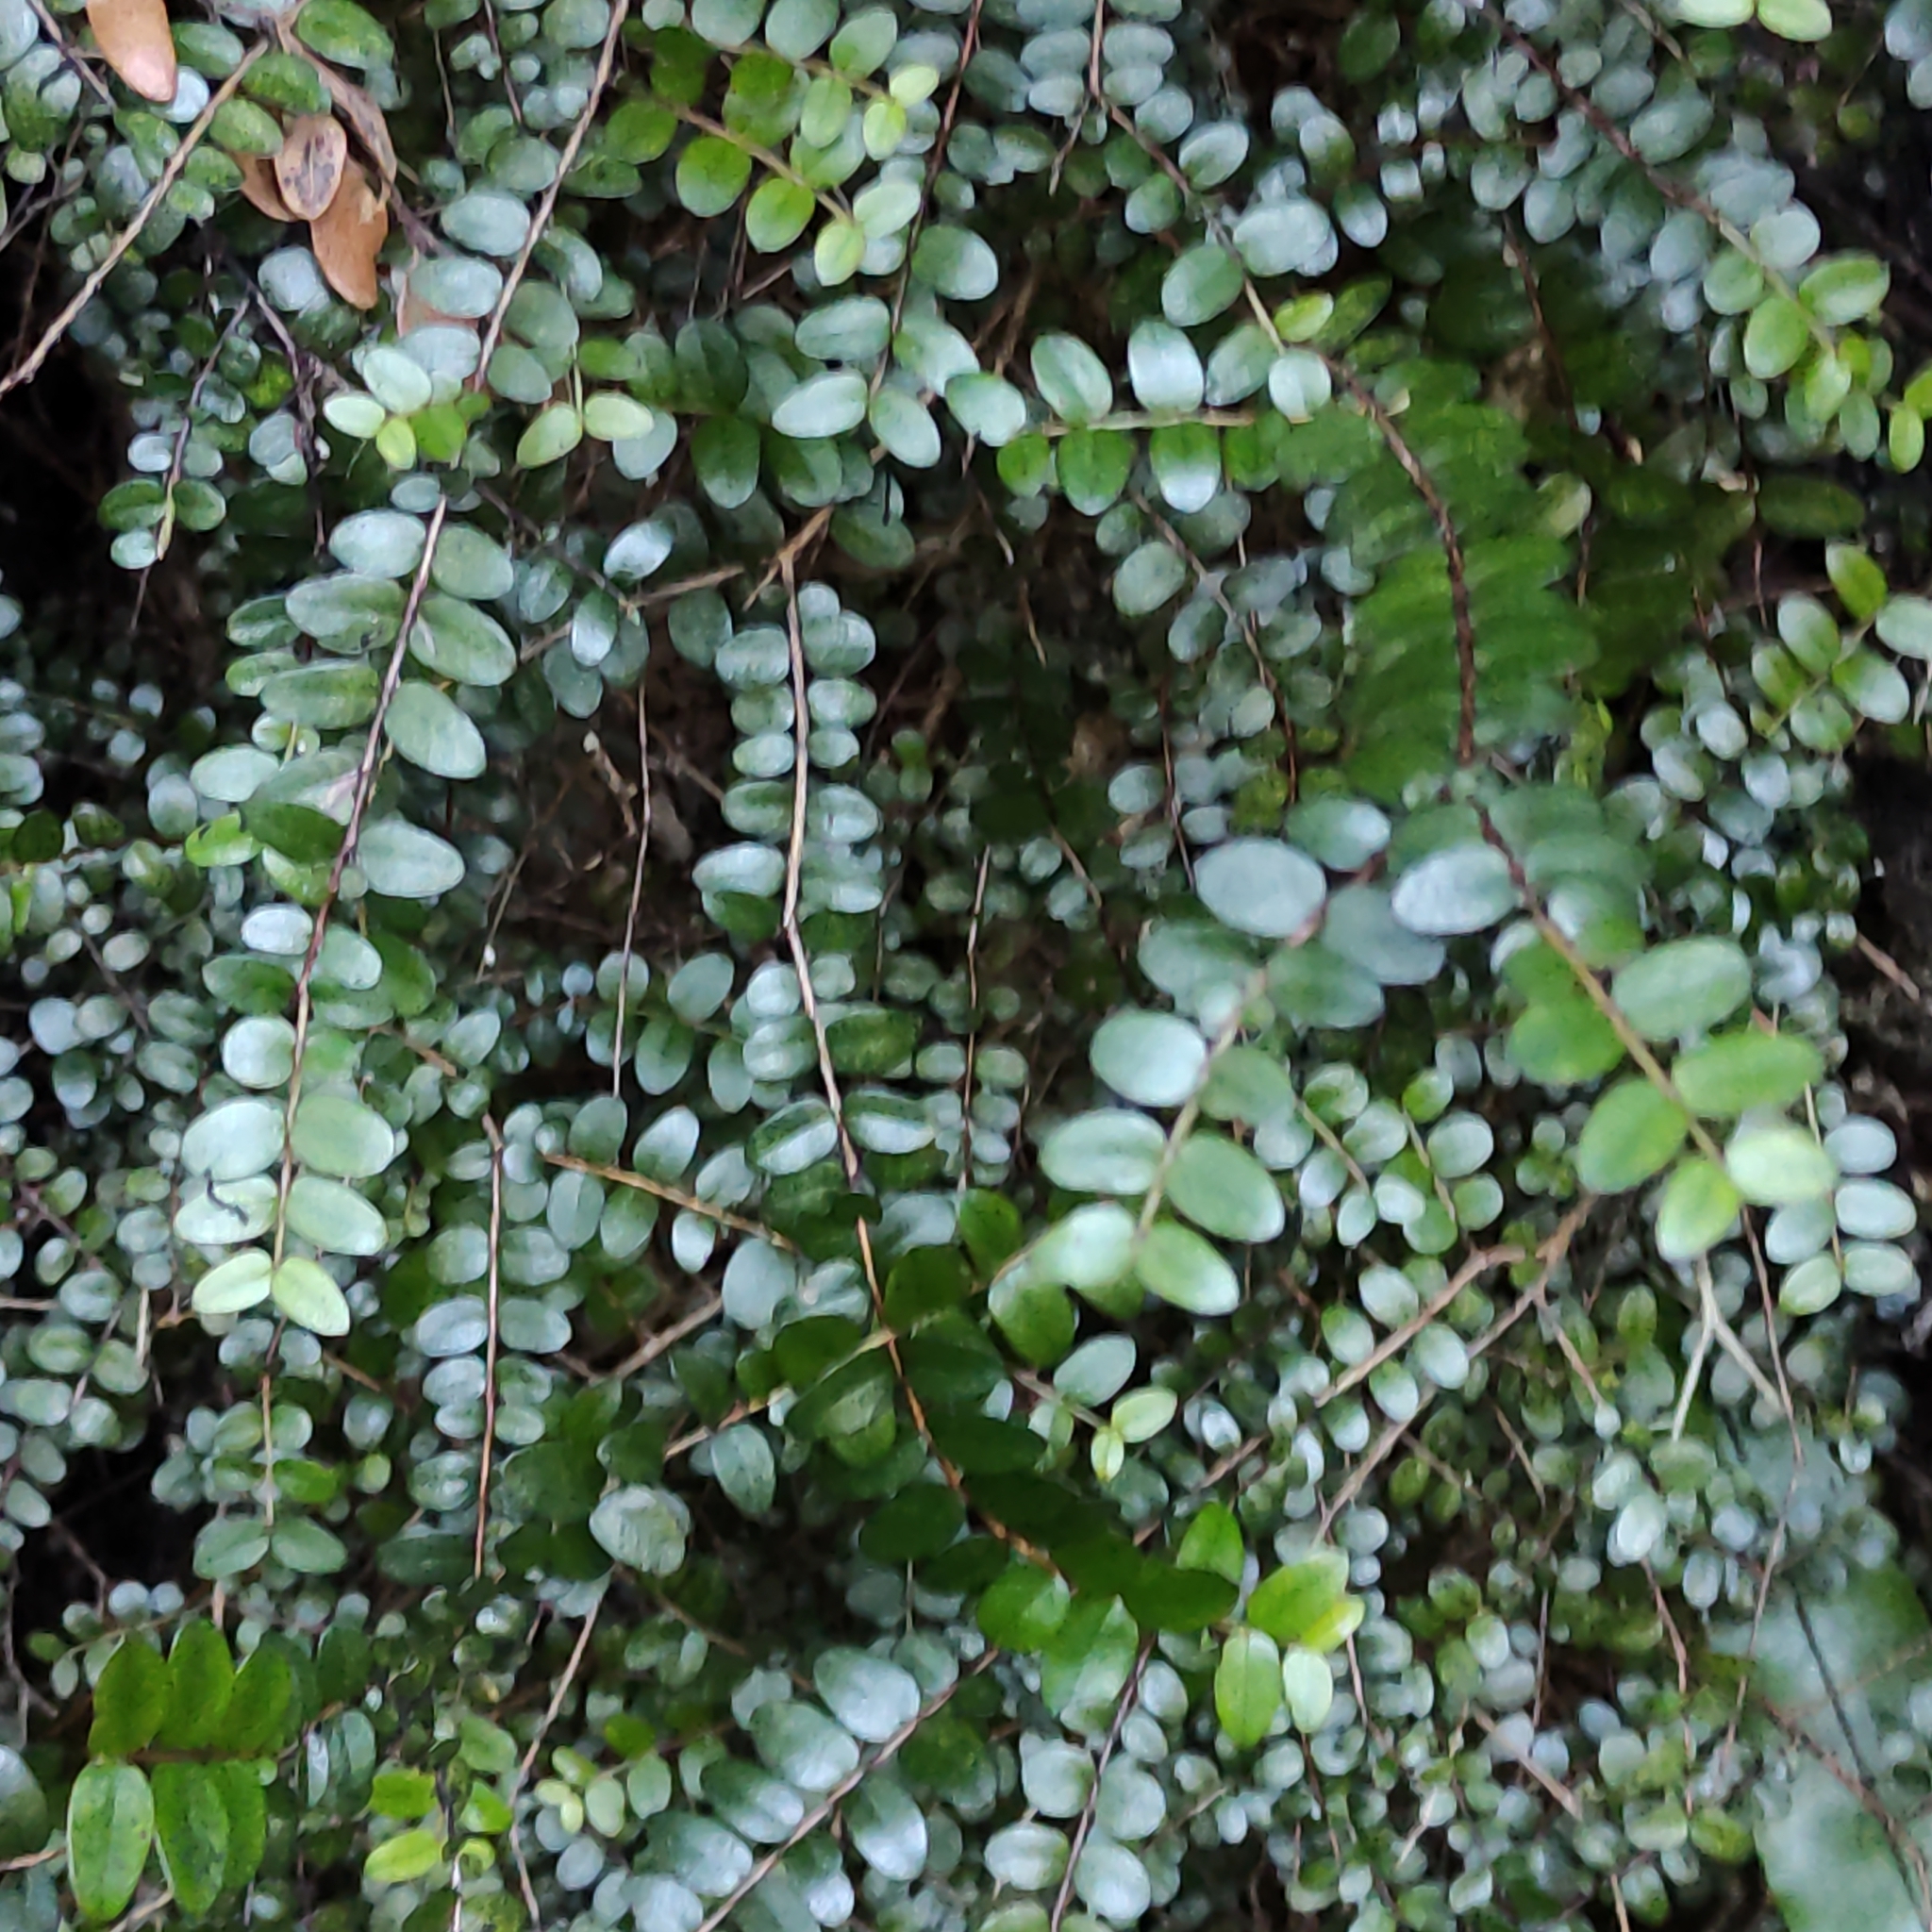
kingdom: Plantae
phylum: Tracheophyta
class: Magnoliopsida
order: Myrtales
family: Myrtaceae
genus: Metrosideros
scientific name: Metrosideros diffusa
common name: Small ratavine
